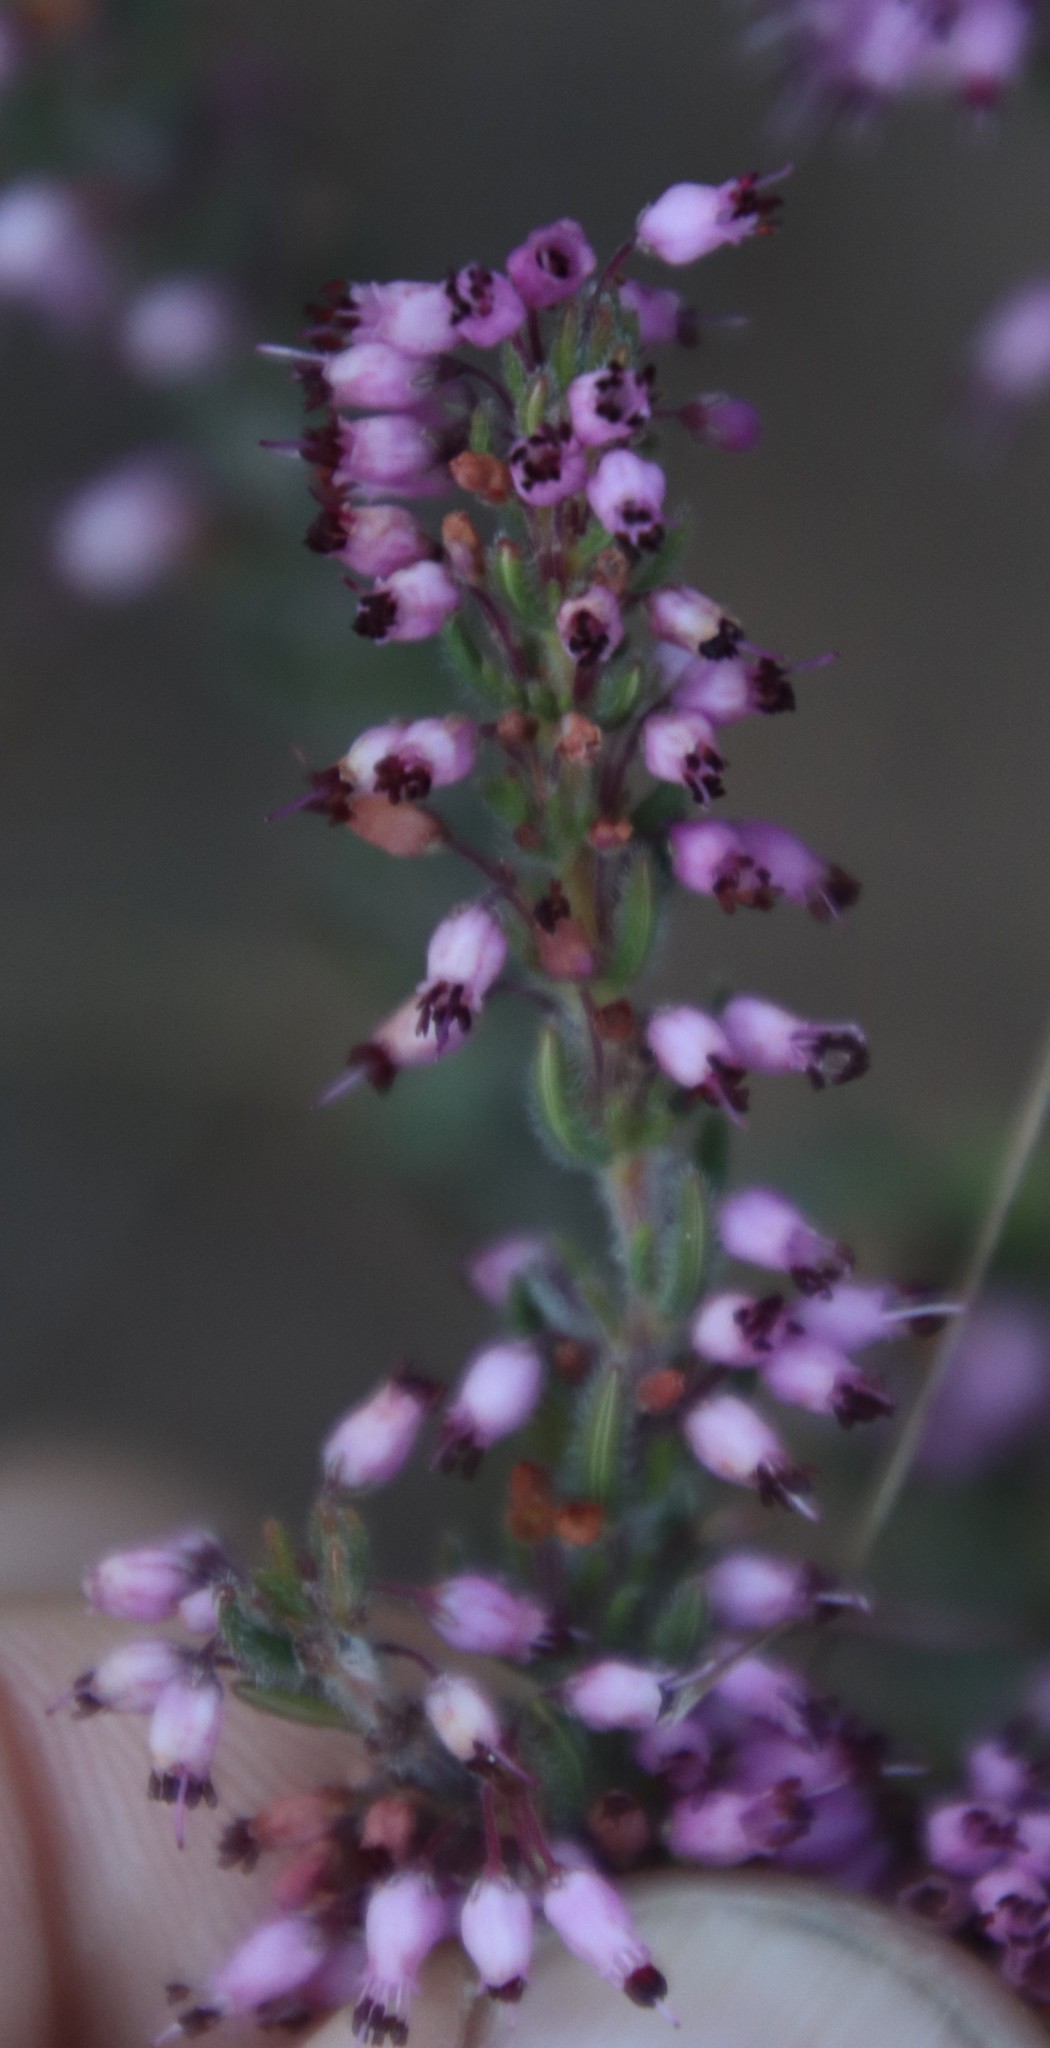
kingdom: Plantae
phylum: Tracheophyta
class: Magnoliopsida
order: Ericales
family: Ericaceae
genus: Erica
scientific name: Erica nudiflora
